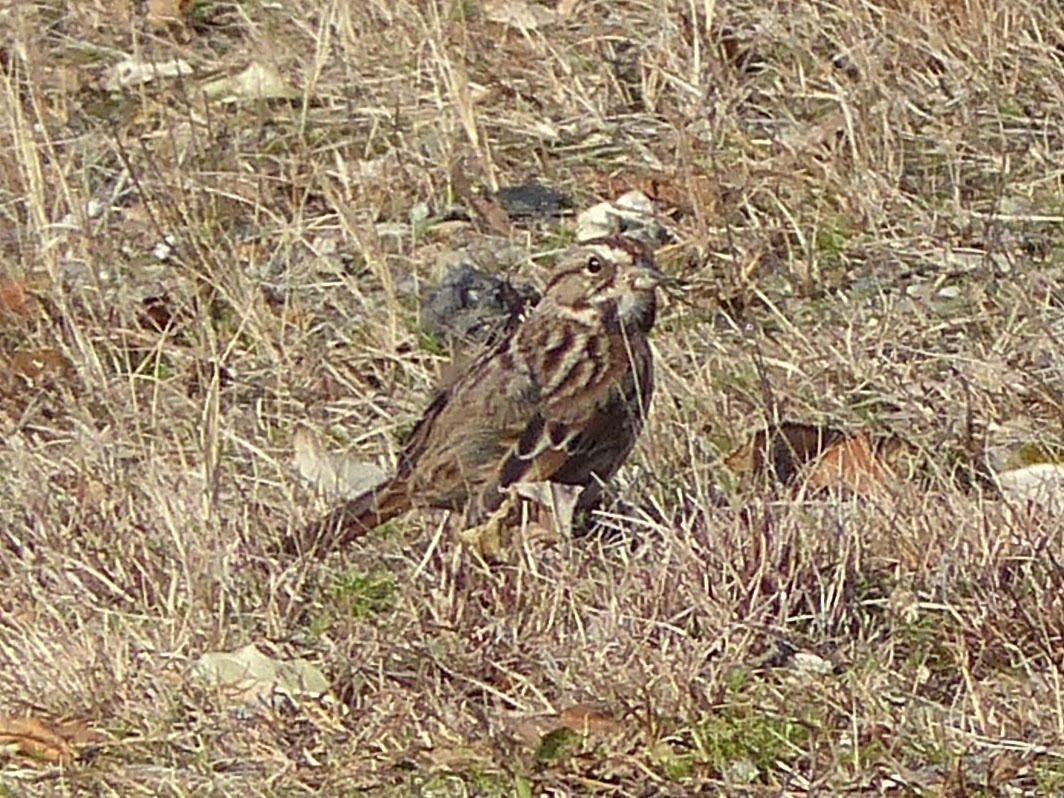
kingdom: Animalia
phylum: Chordata
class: Aves
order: Passeriformes
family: Passerellidae
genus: Melospiza
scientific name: Melospiza melodia
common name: Song sparrow
